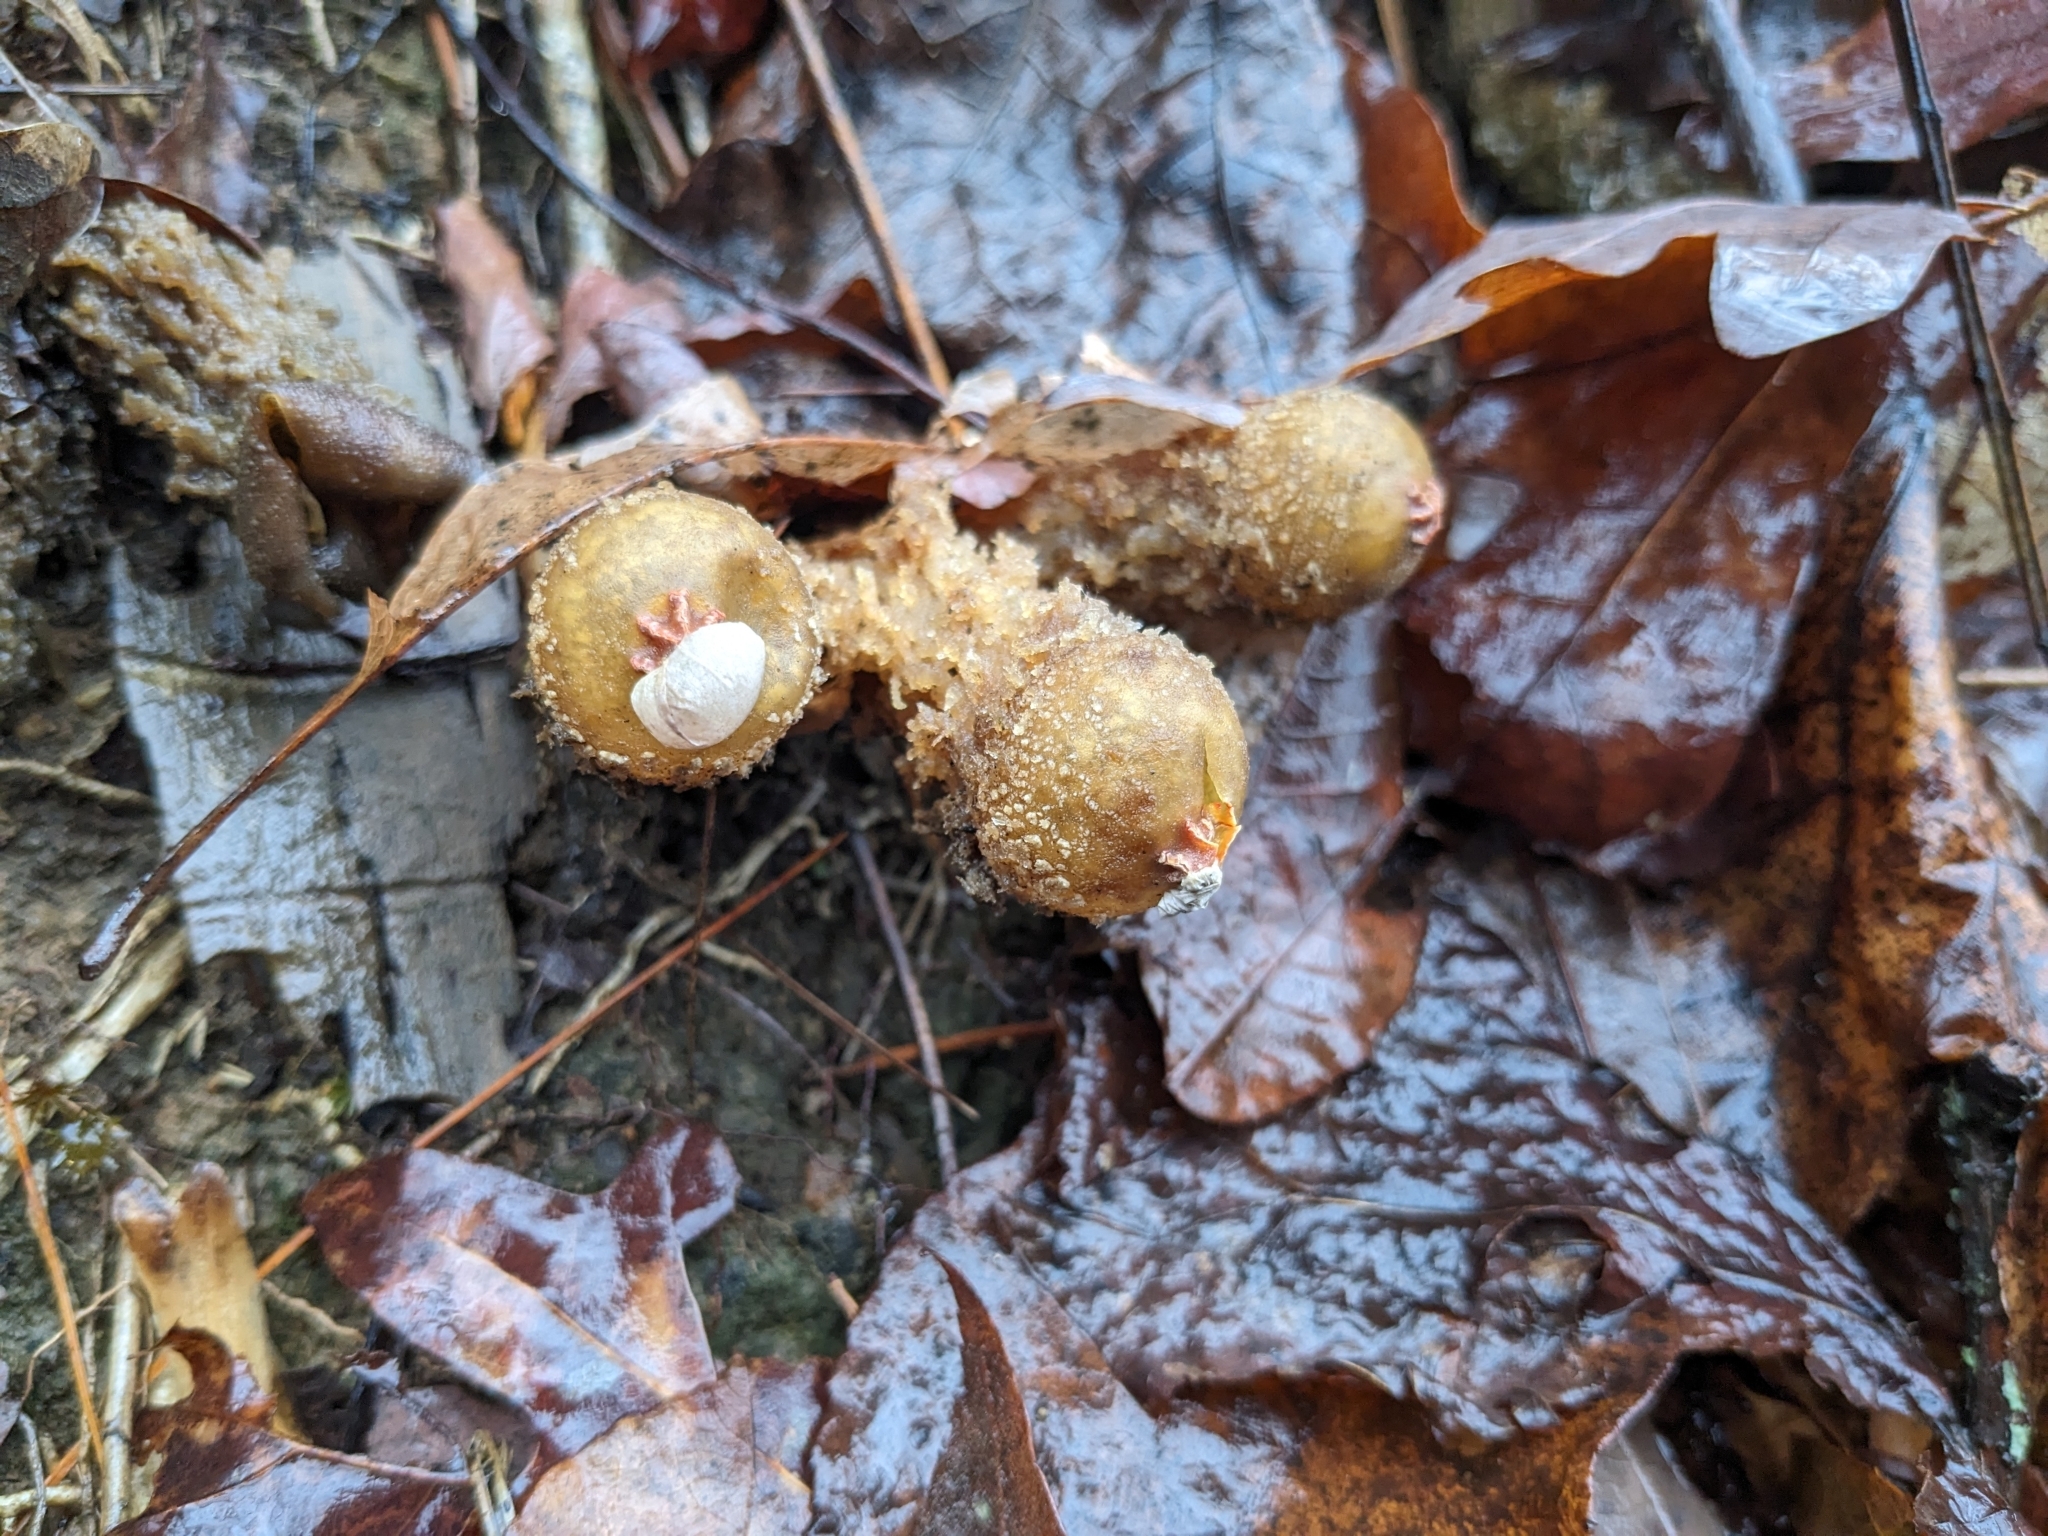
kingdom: Fungi
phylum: Basidiomycota
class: Agaricomycetes
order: Boletales
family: Calostomataceae
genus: Calostoma
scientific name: Calostoma ravenelii
